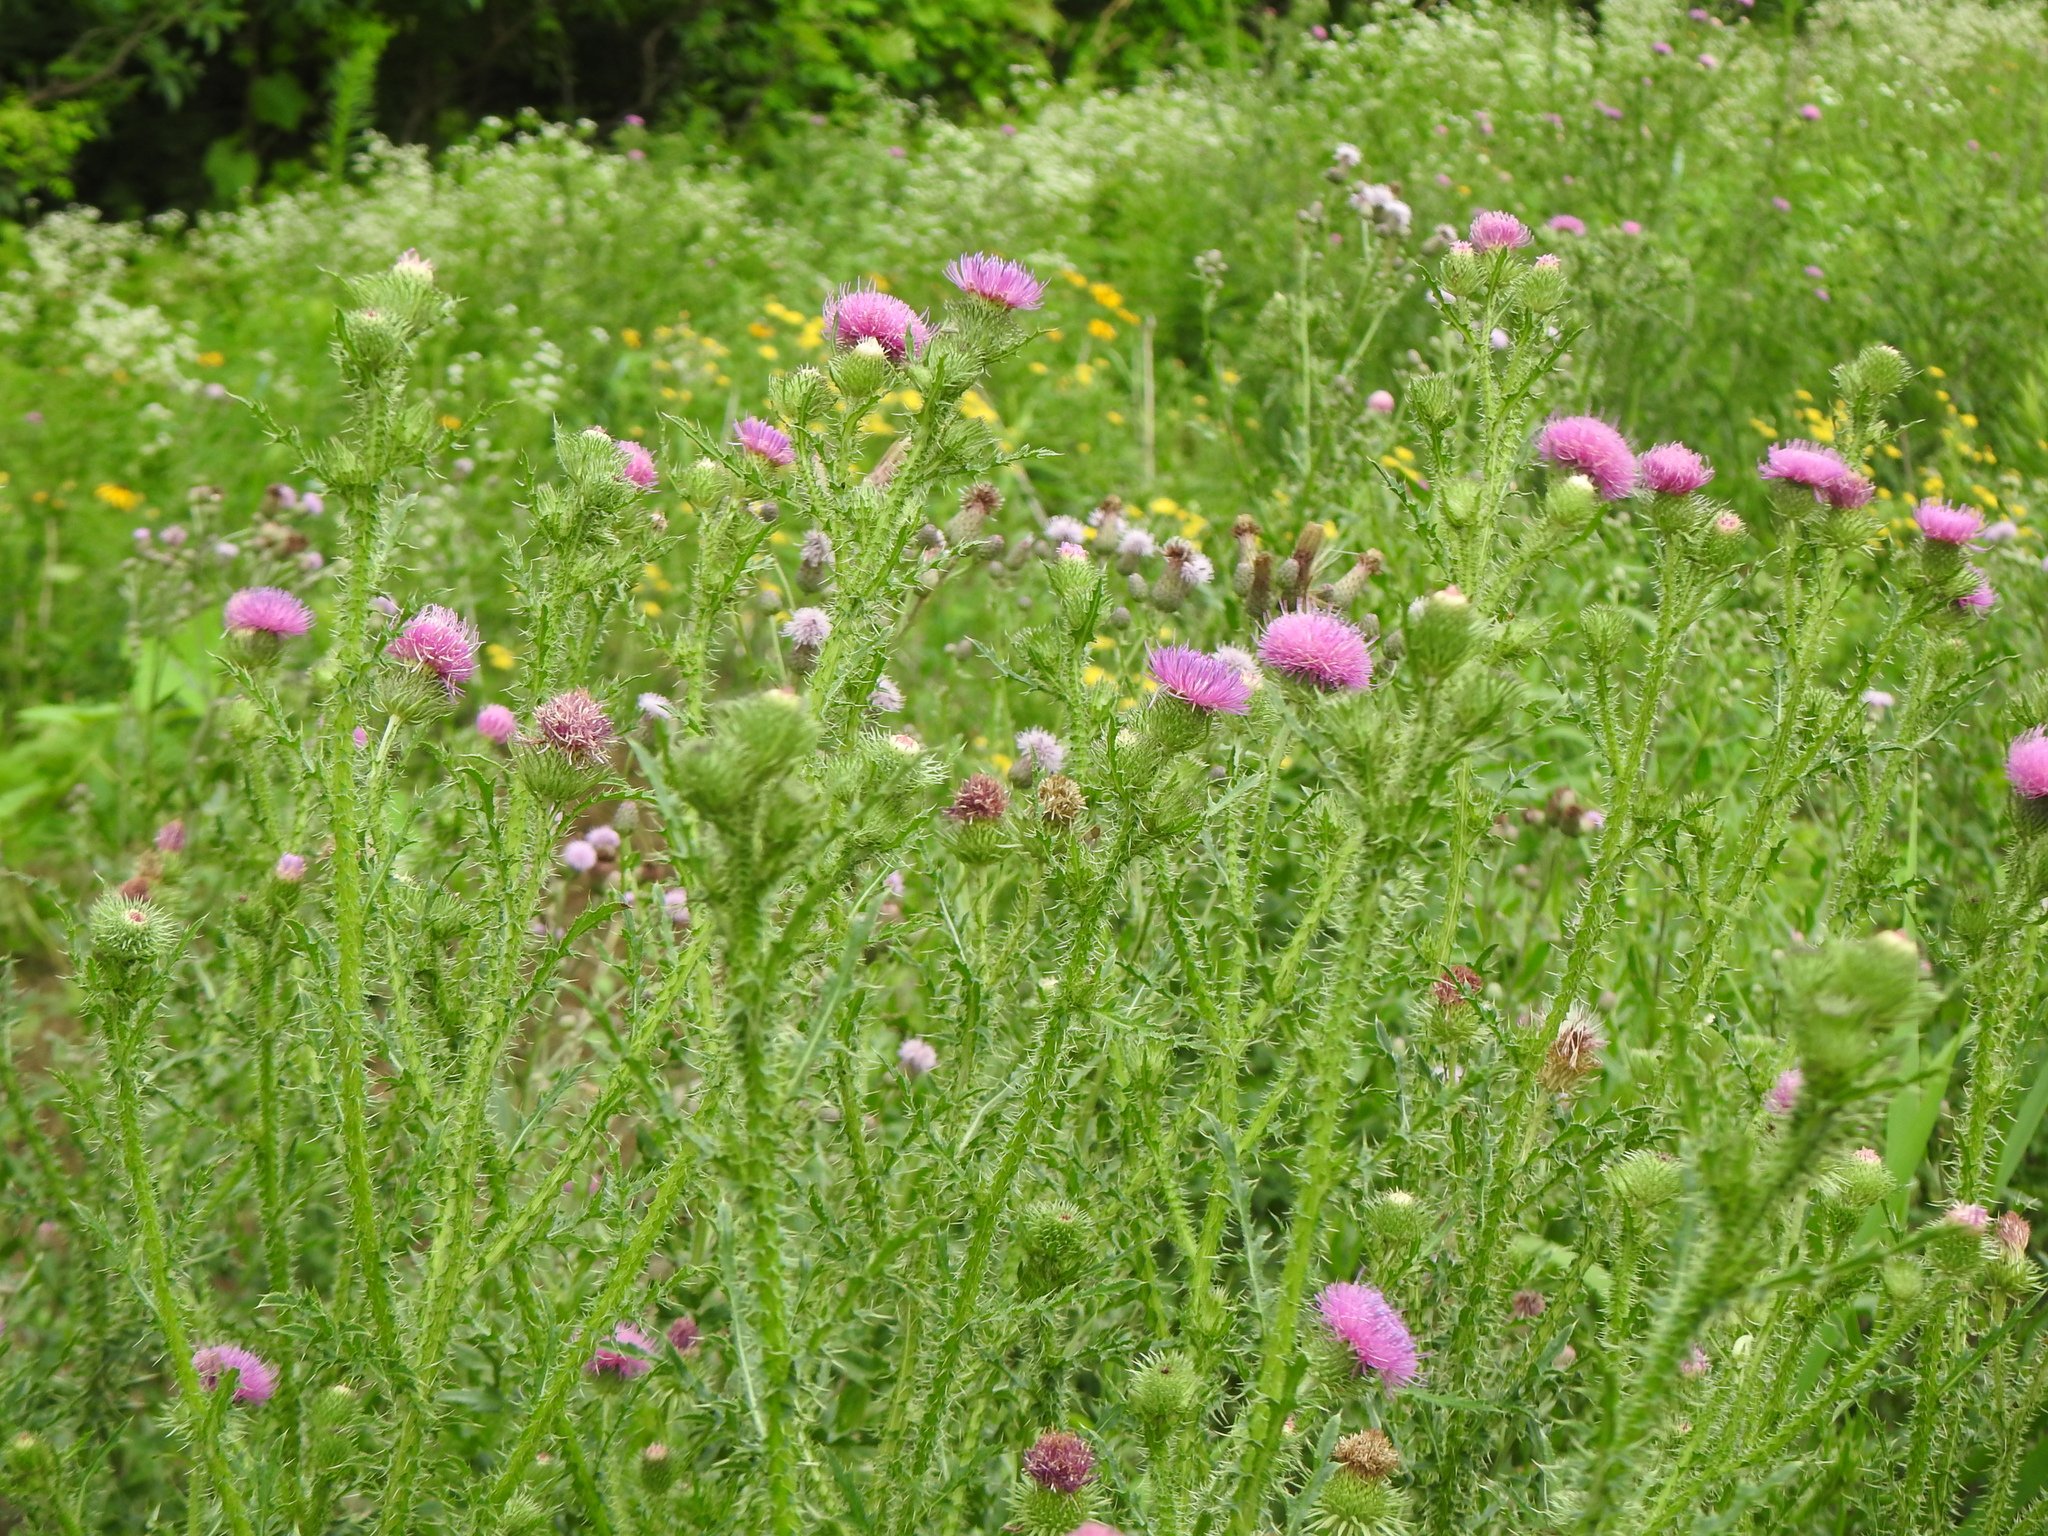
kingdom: Plantae
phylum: Tracheophyta
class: Magnoliopsida
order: Asterales
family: Asteraceae
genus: Carduus
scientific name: Carduus acanthoides
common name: Plumeless thistle
